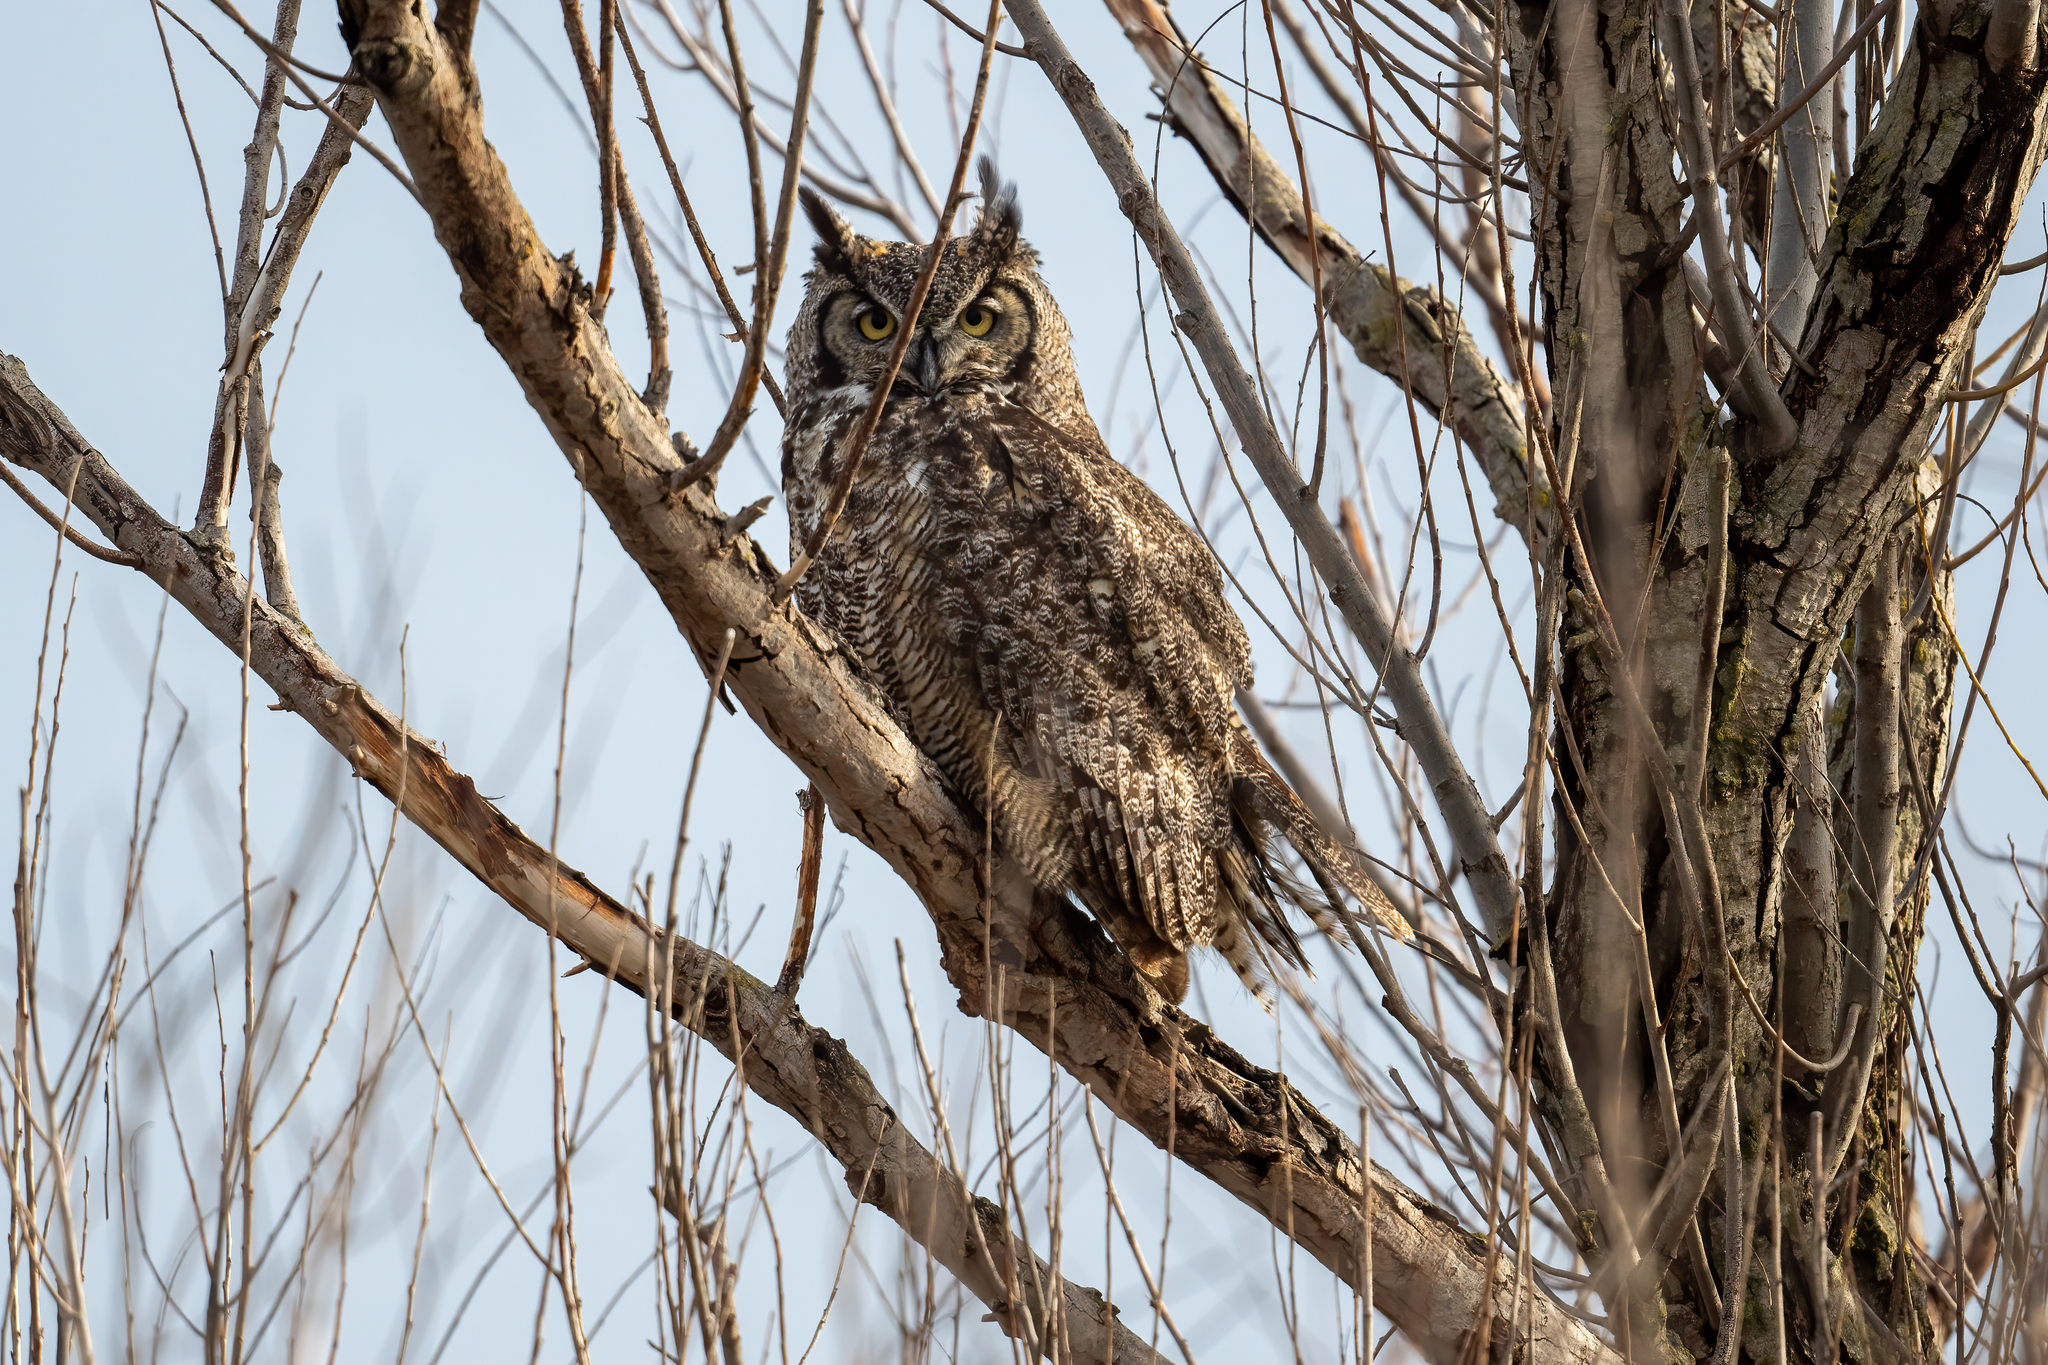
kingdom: Animalia
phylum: Chordata
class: Aves
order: Strigiformes
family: Strigidae
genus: Bubo
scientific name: Bubo virginianus
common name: Great horned owl
